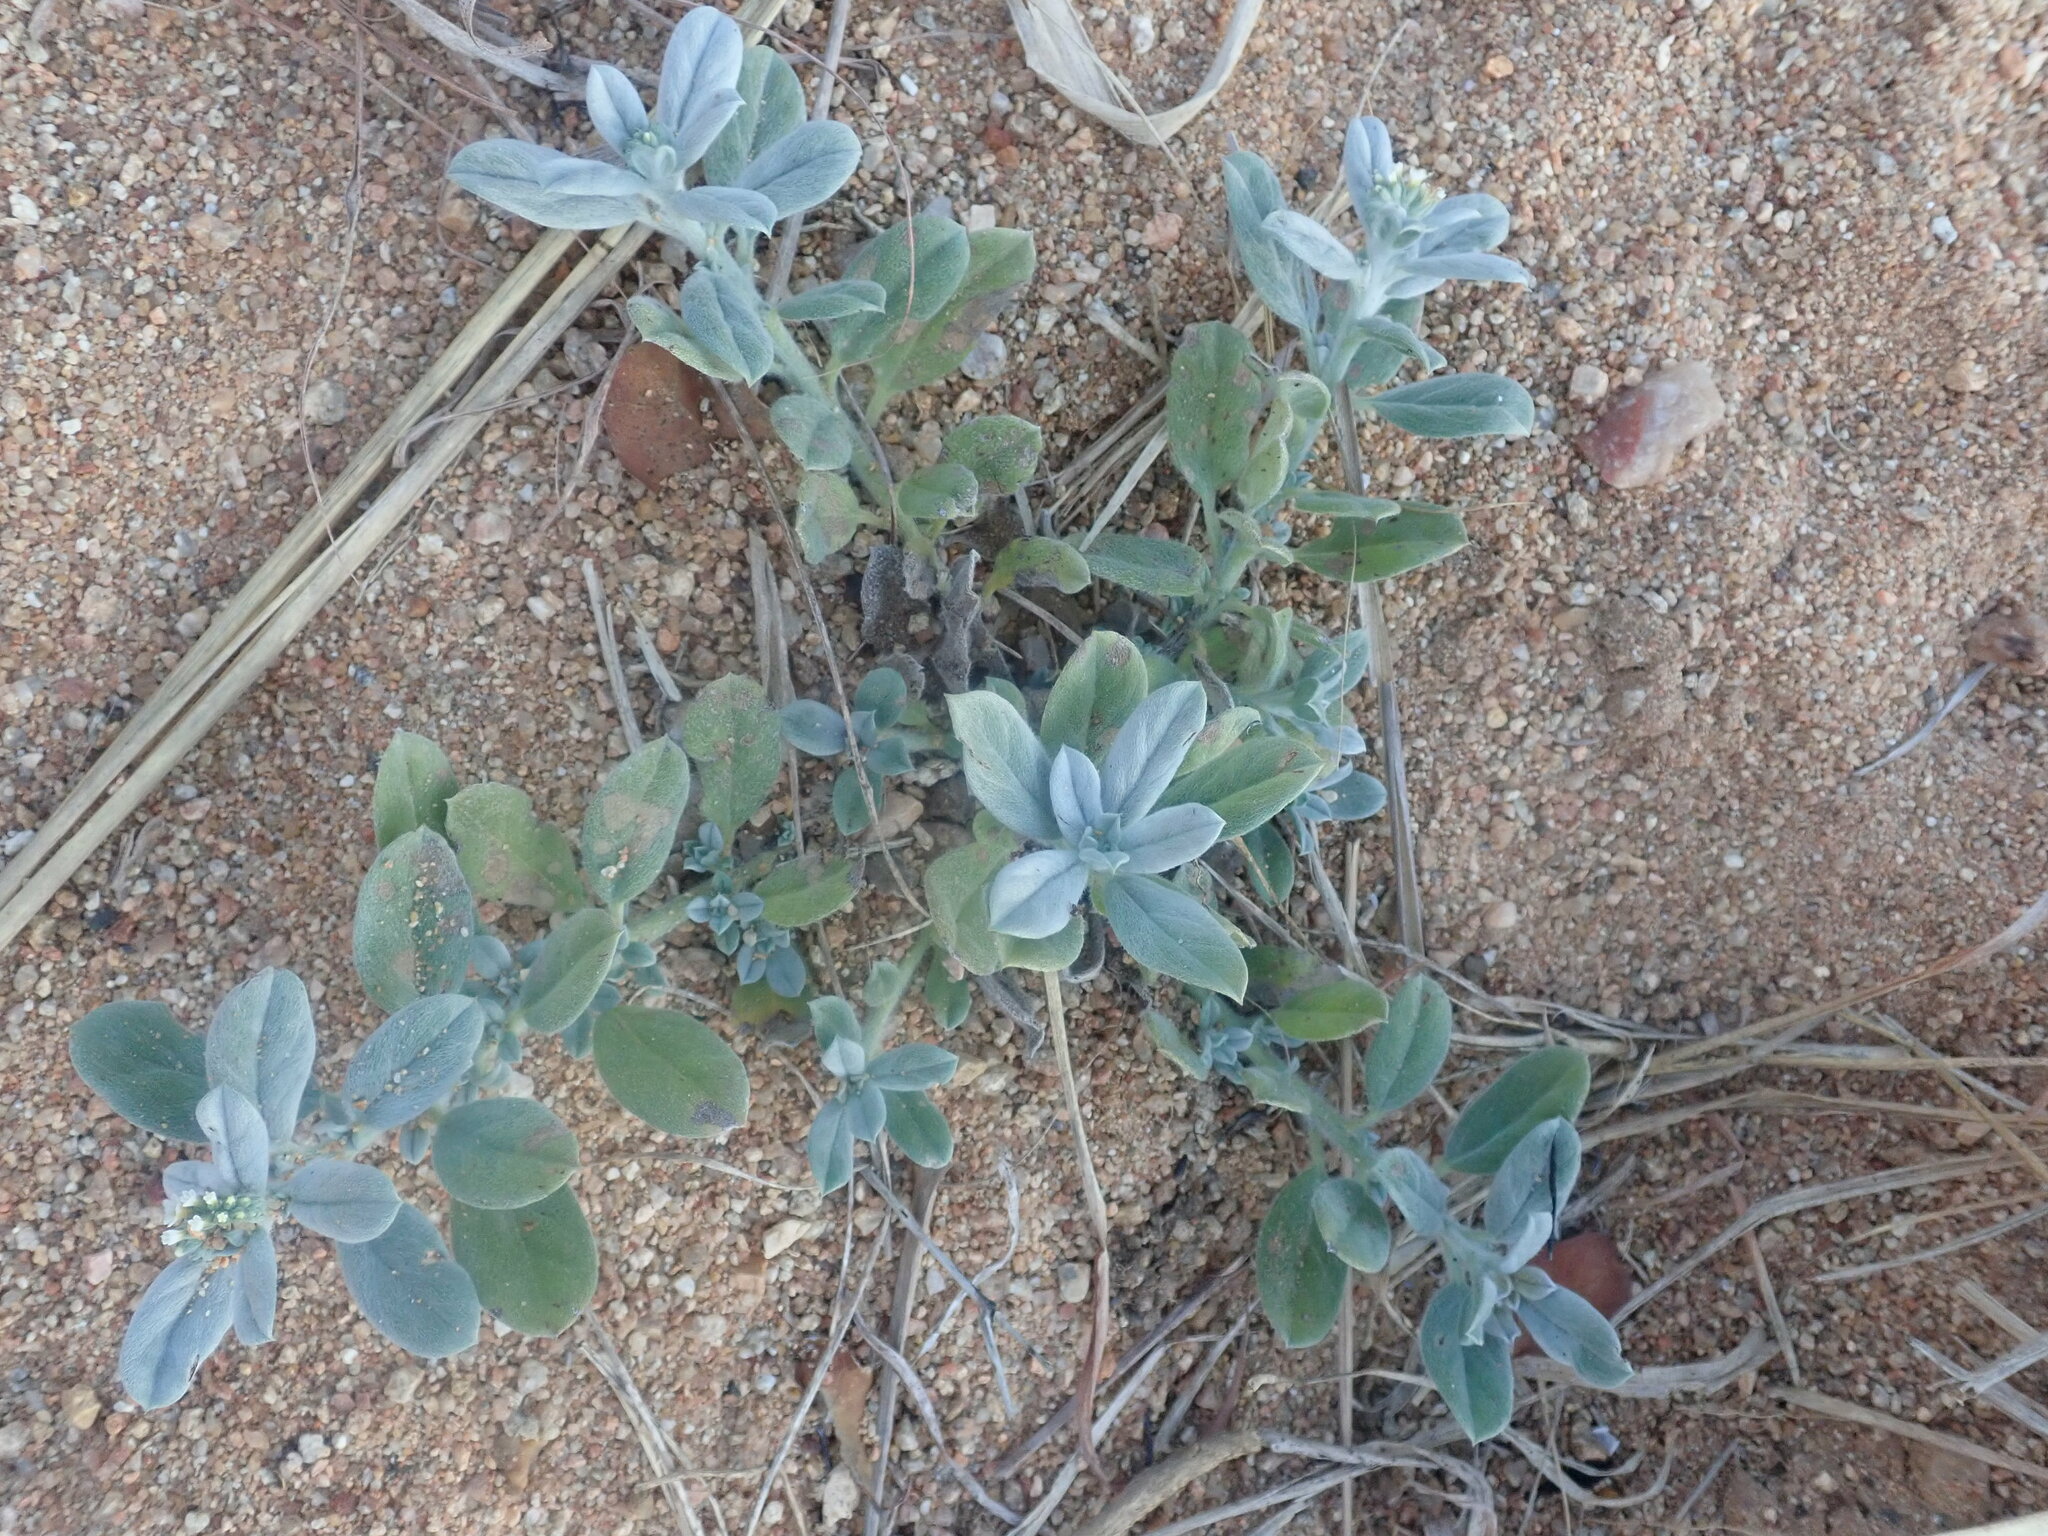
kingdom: Plantae
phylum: Tracheophyta
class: Magnoliopsida
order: Boraginales
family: Heliotropiaceae
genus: Euploca
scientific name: Euploca ovalifolia
